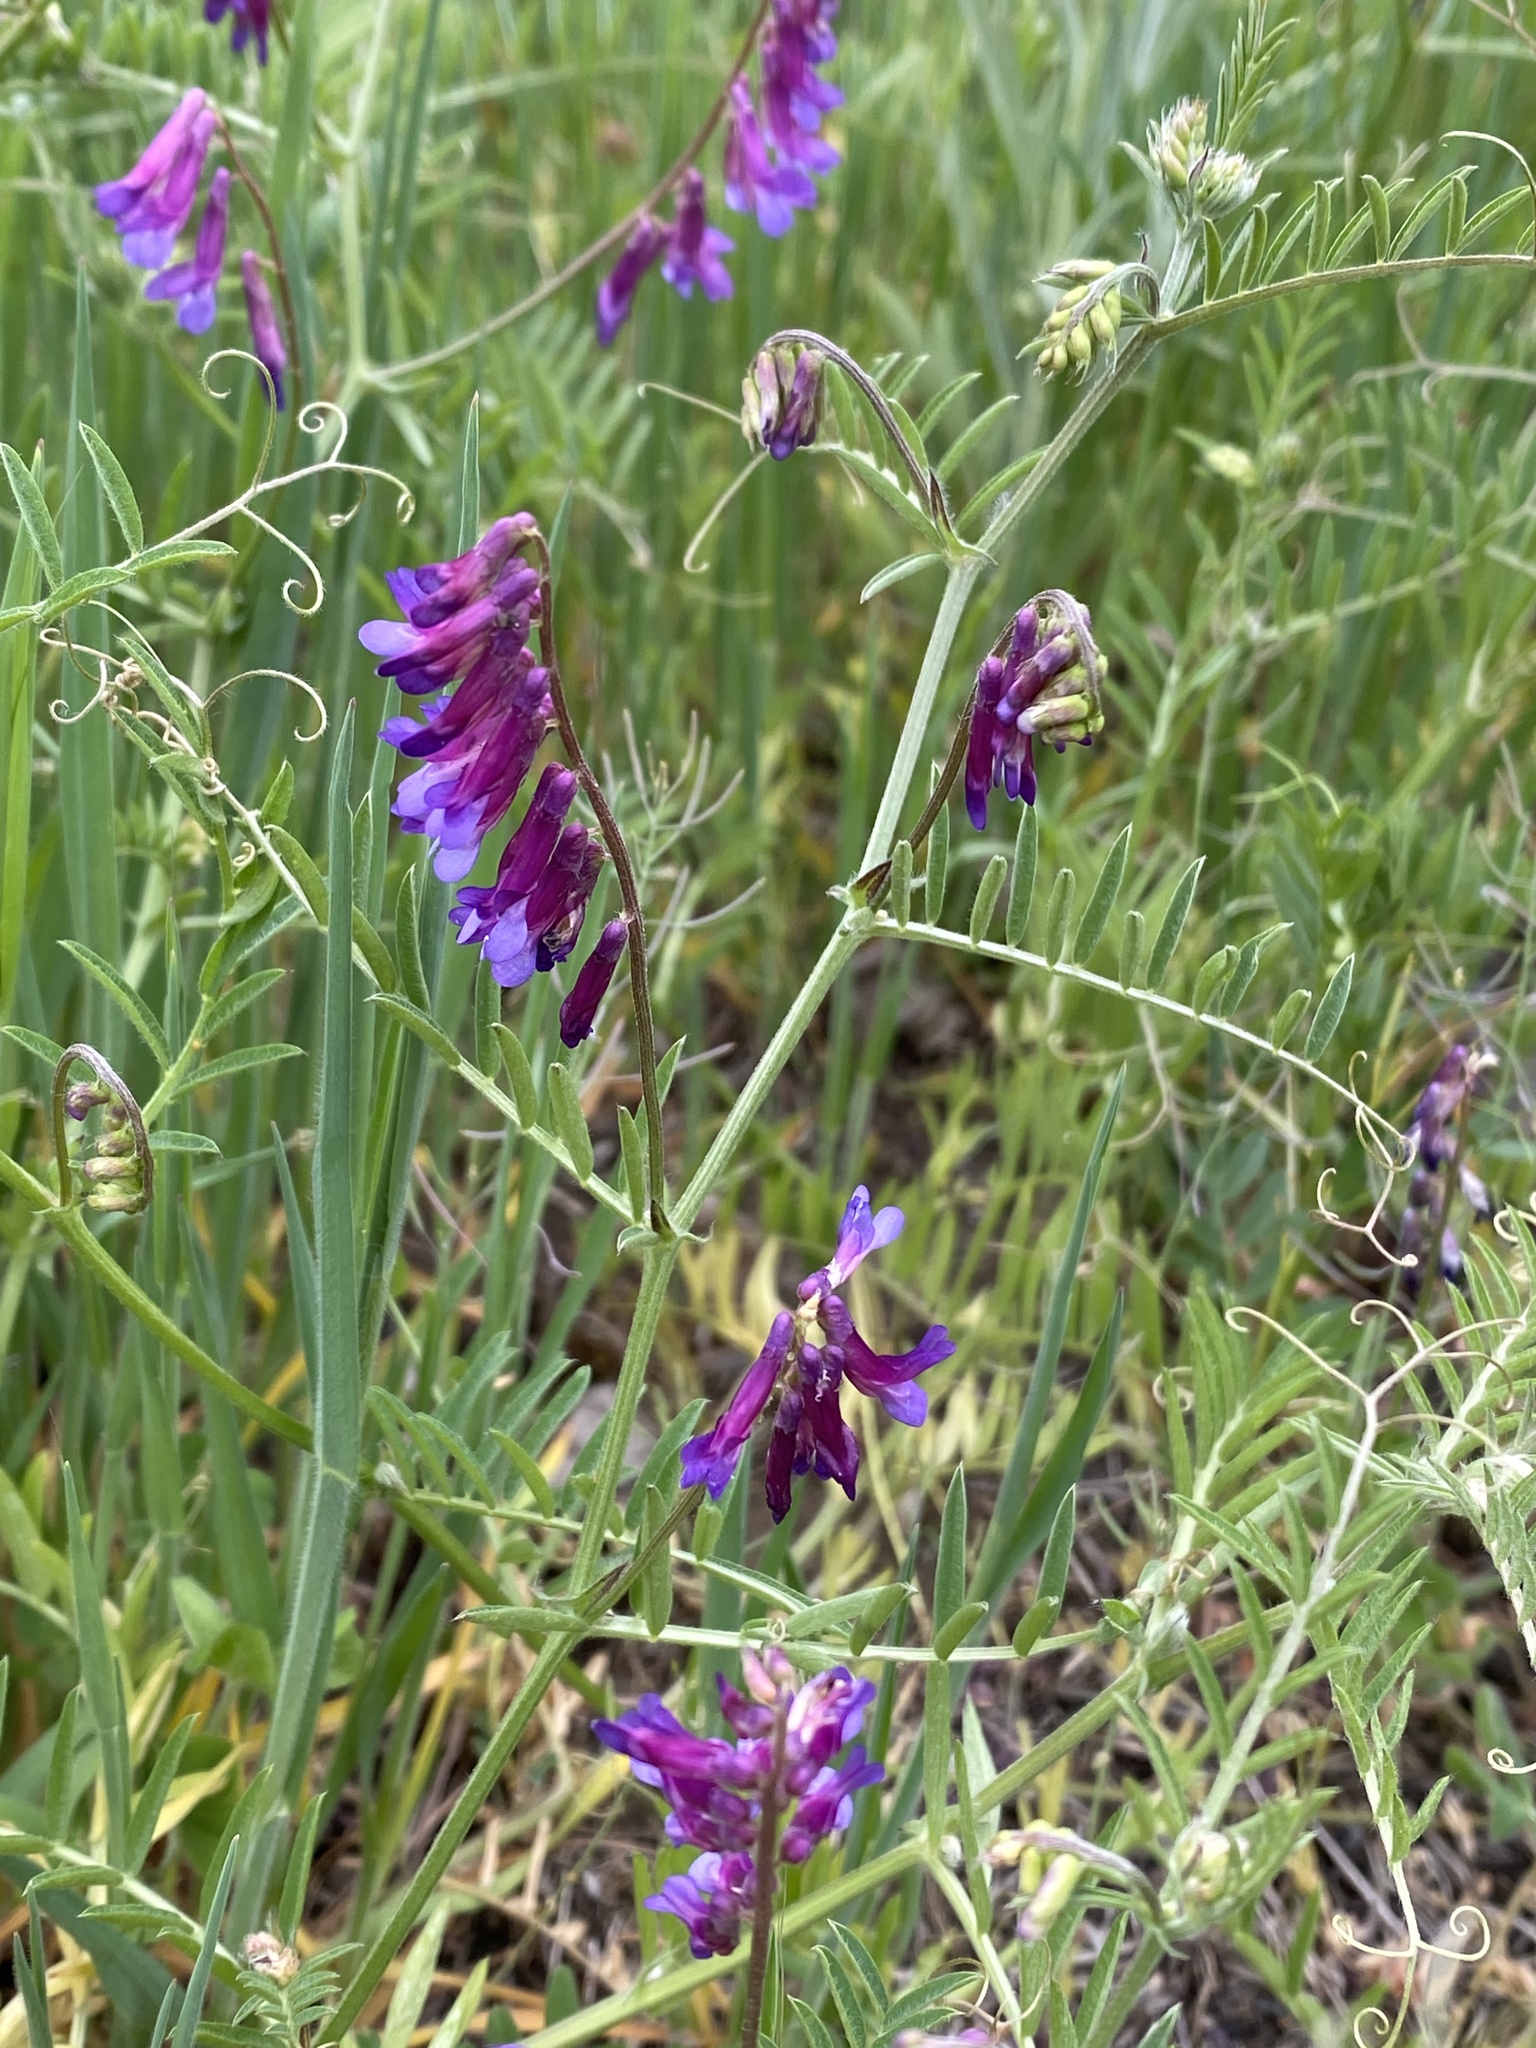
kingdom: Plantae
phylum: Tracheophyta
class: Magnoliopsida
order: Fabales
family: Fabaceae
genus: Vicia
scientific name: Vicia villosa
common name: Fodder vetch
